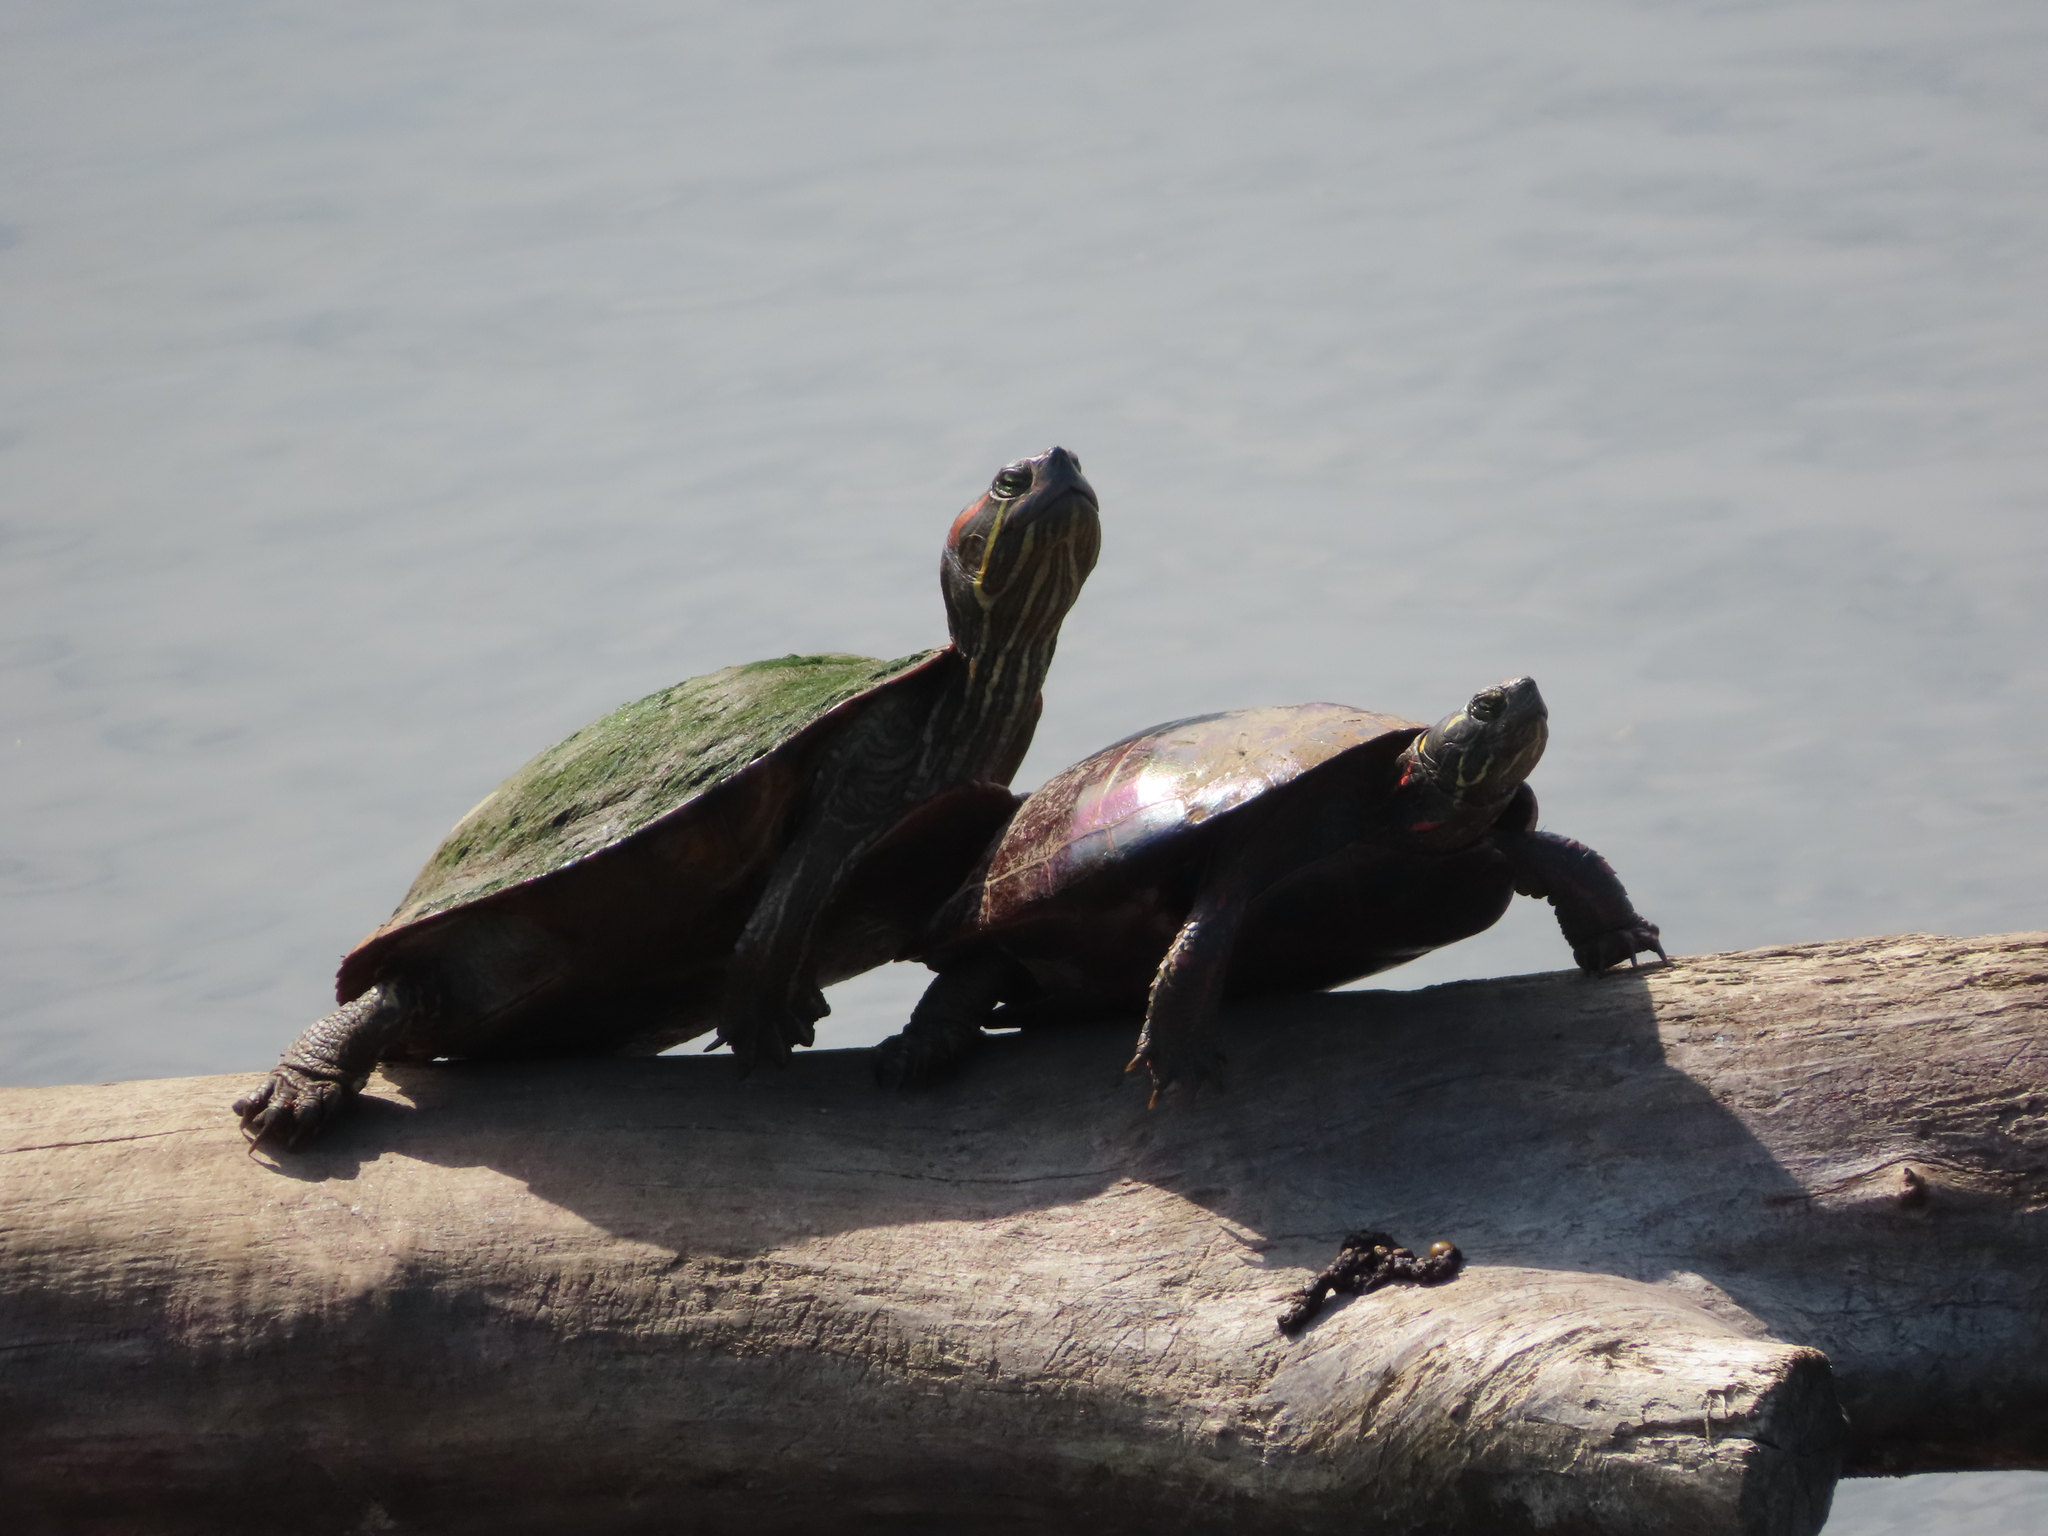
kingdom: Animalia
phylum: Chordata
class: Testudines
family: Emydidae
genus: Trachemys
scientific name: Trachemys scripta
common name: Slider
